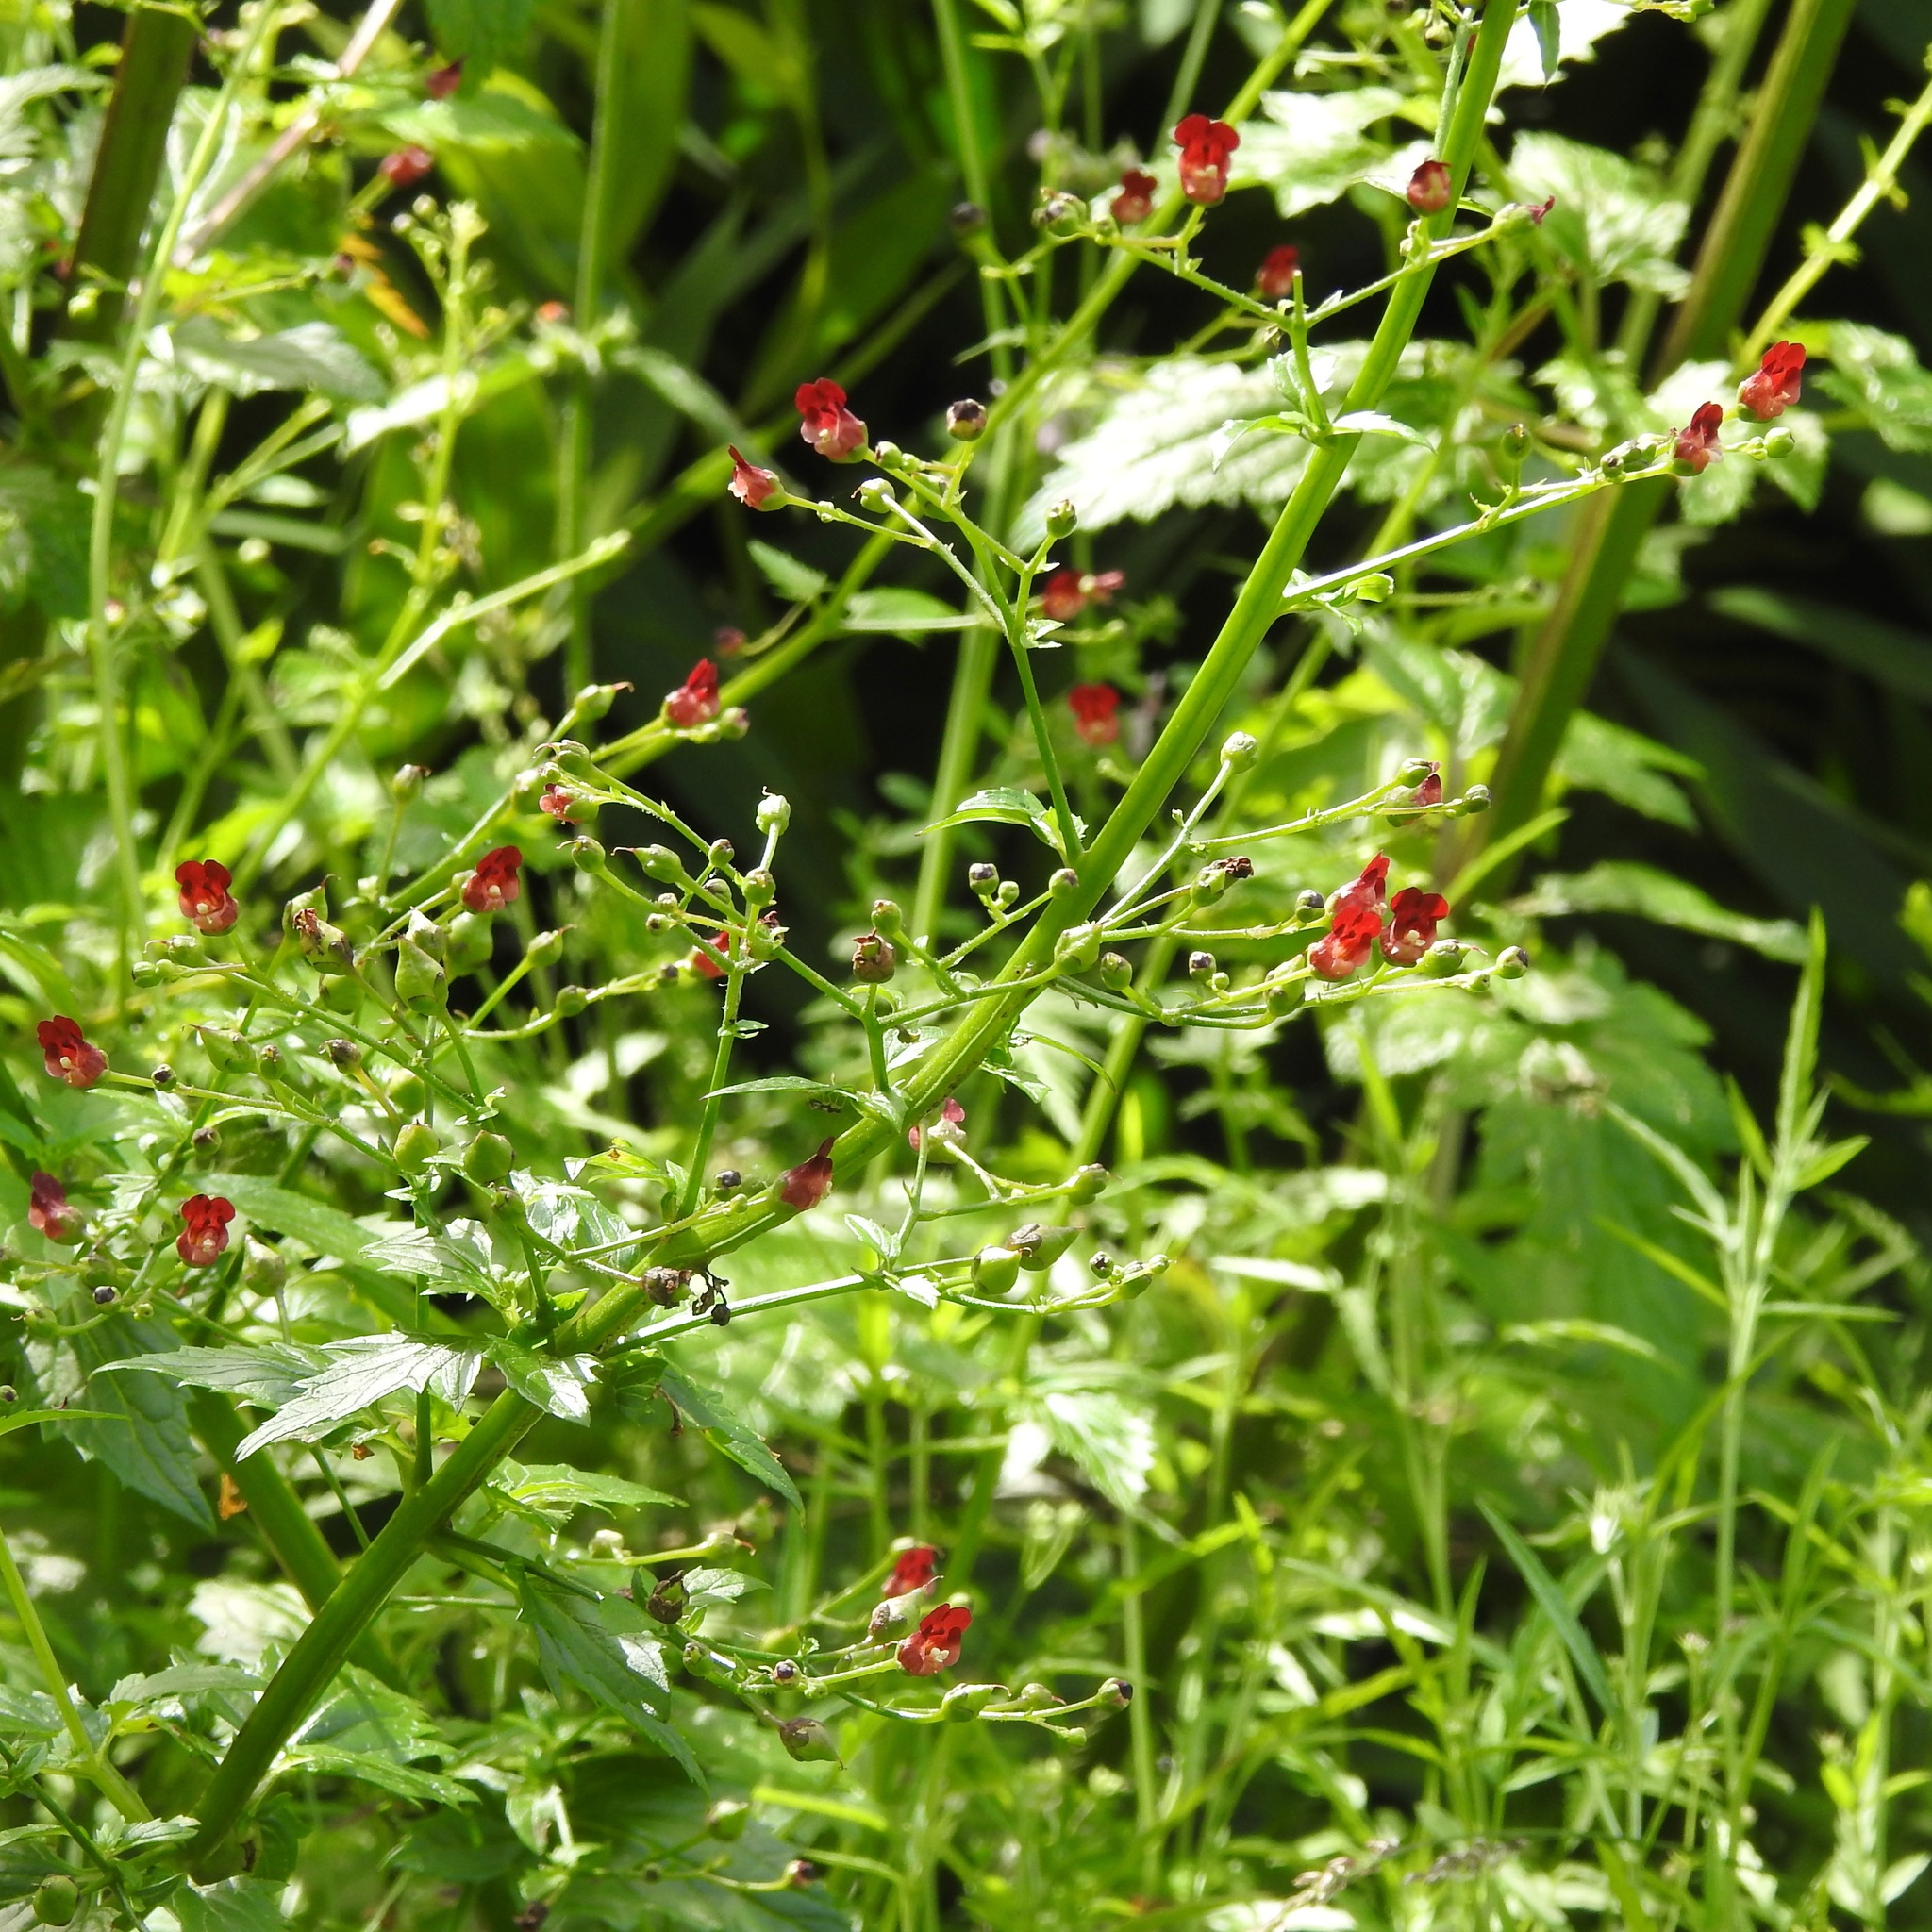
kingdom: Plantae
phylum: Tracheophyta
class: Magnoliopsida
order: Lamiales
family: Scrophulariaceae
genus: Scrophularia
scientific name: Scrophularia californica
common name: California figwort
